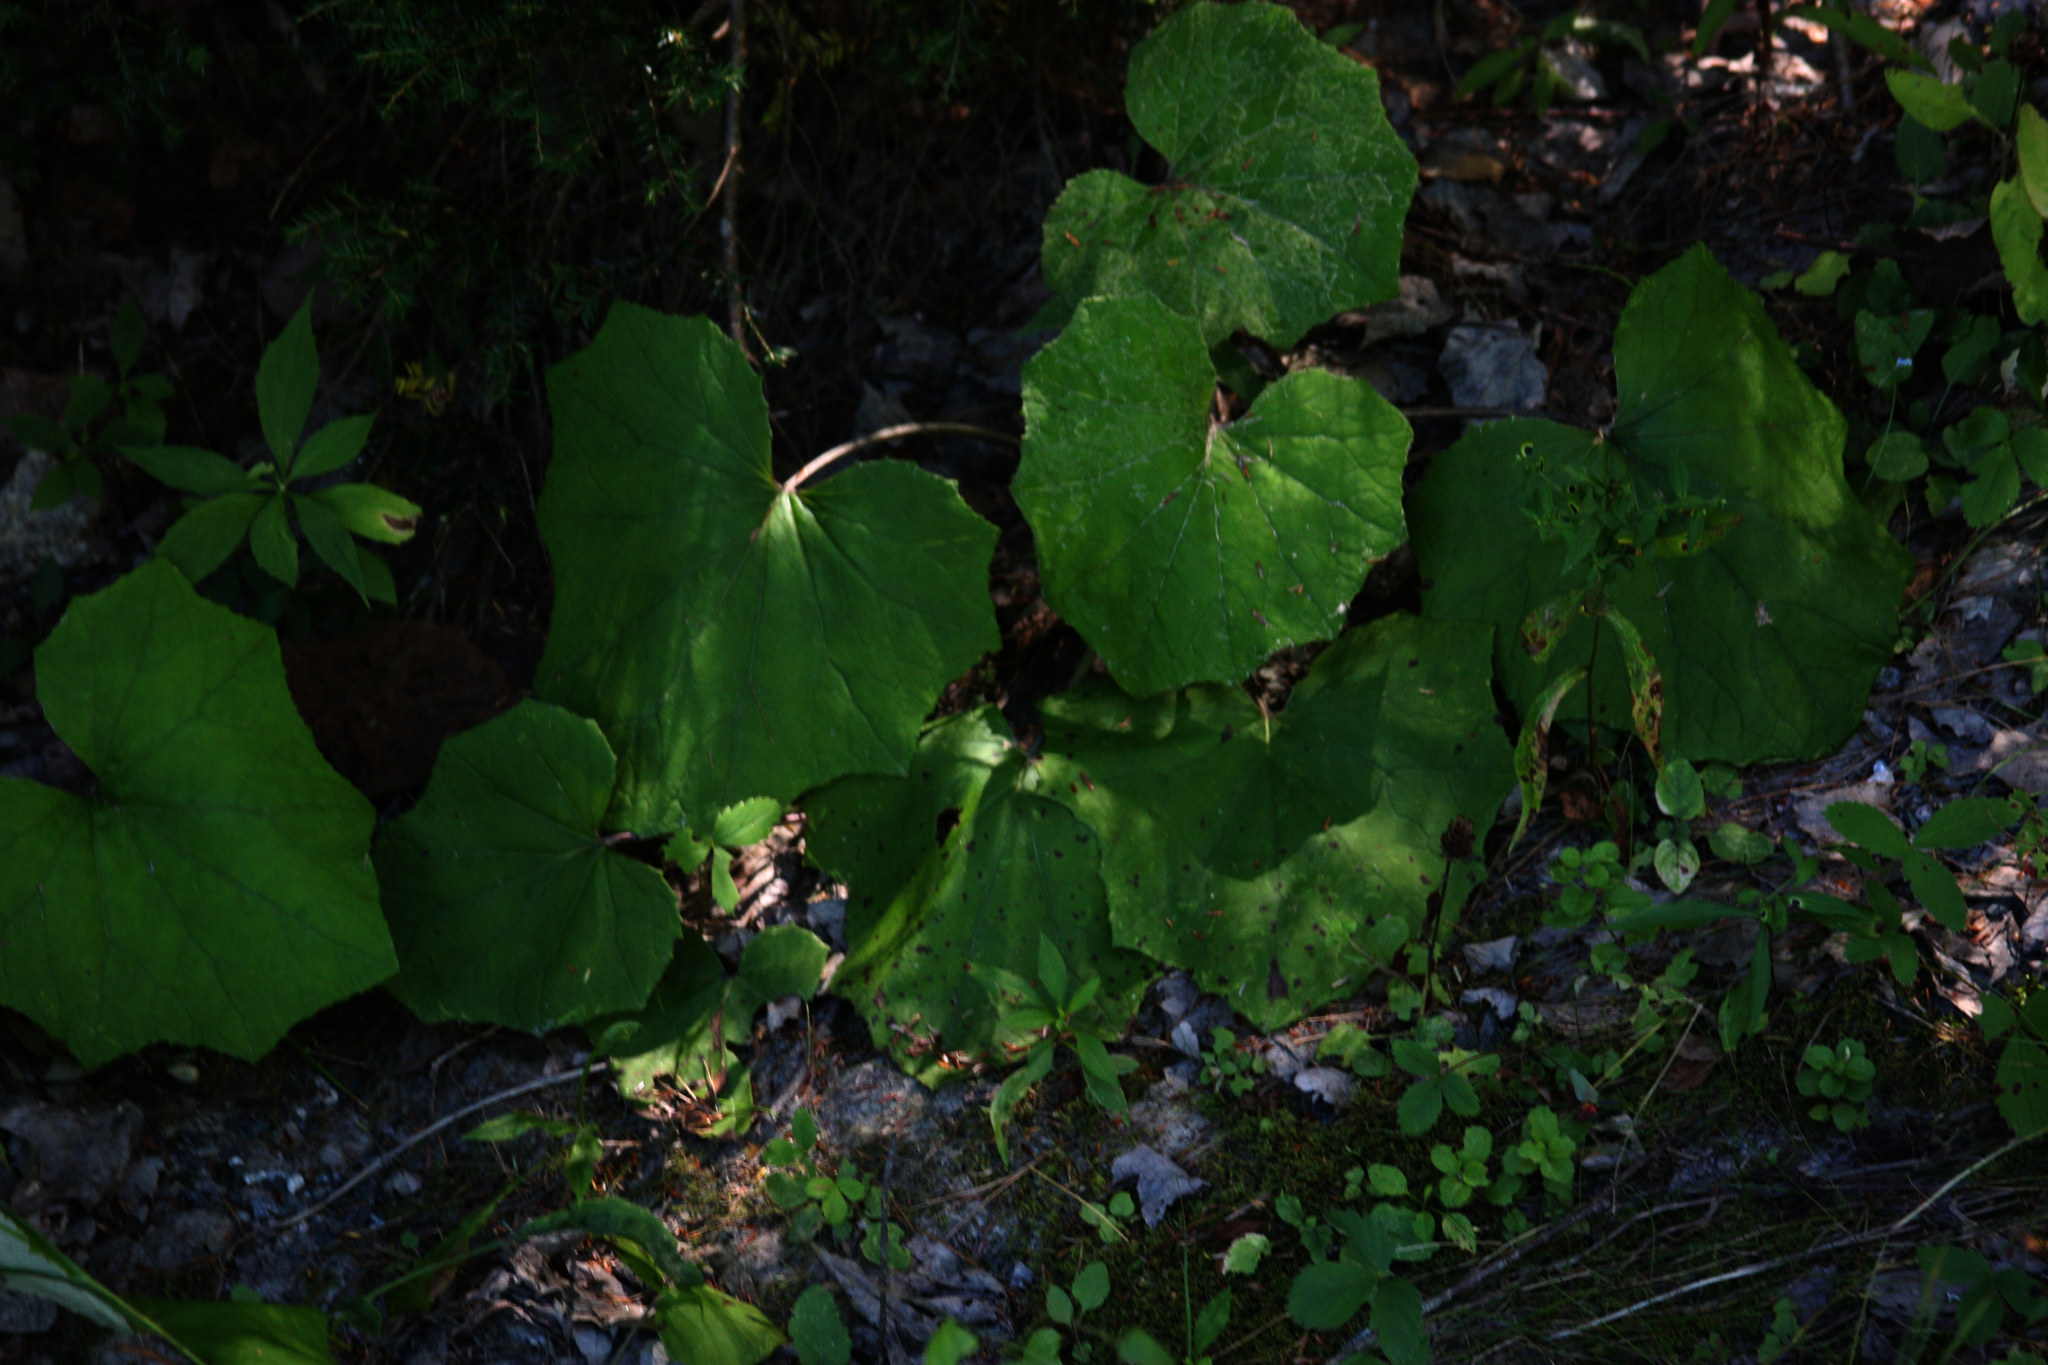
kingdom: Plantae
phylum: Tracheophyta
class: Magnoliopsida
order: Asterales
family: Asteraceae
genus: Tussilago
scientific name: Tussilago farfara
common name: Coltsfoot
